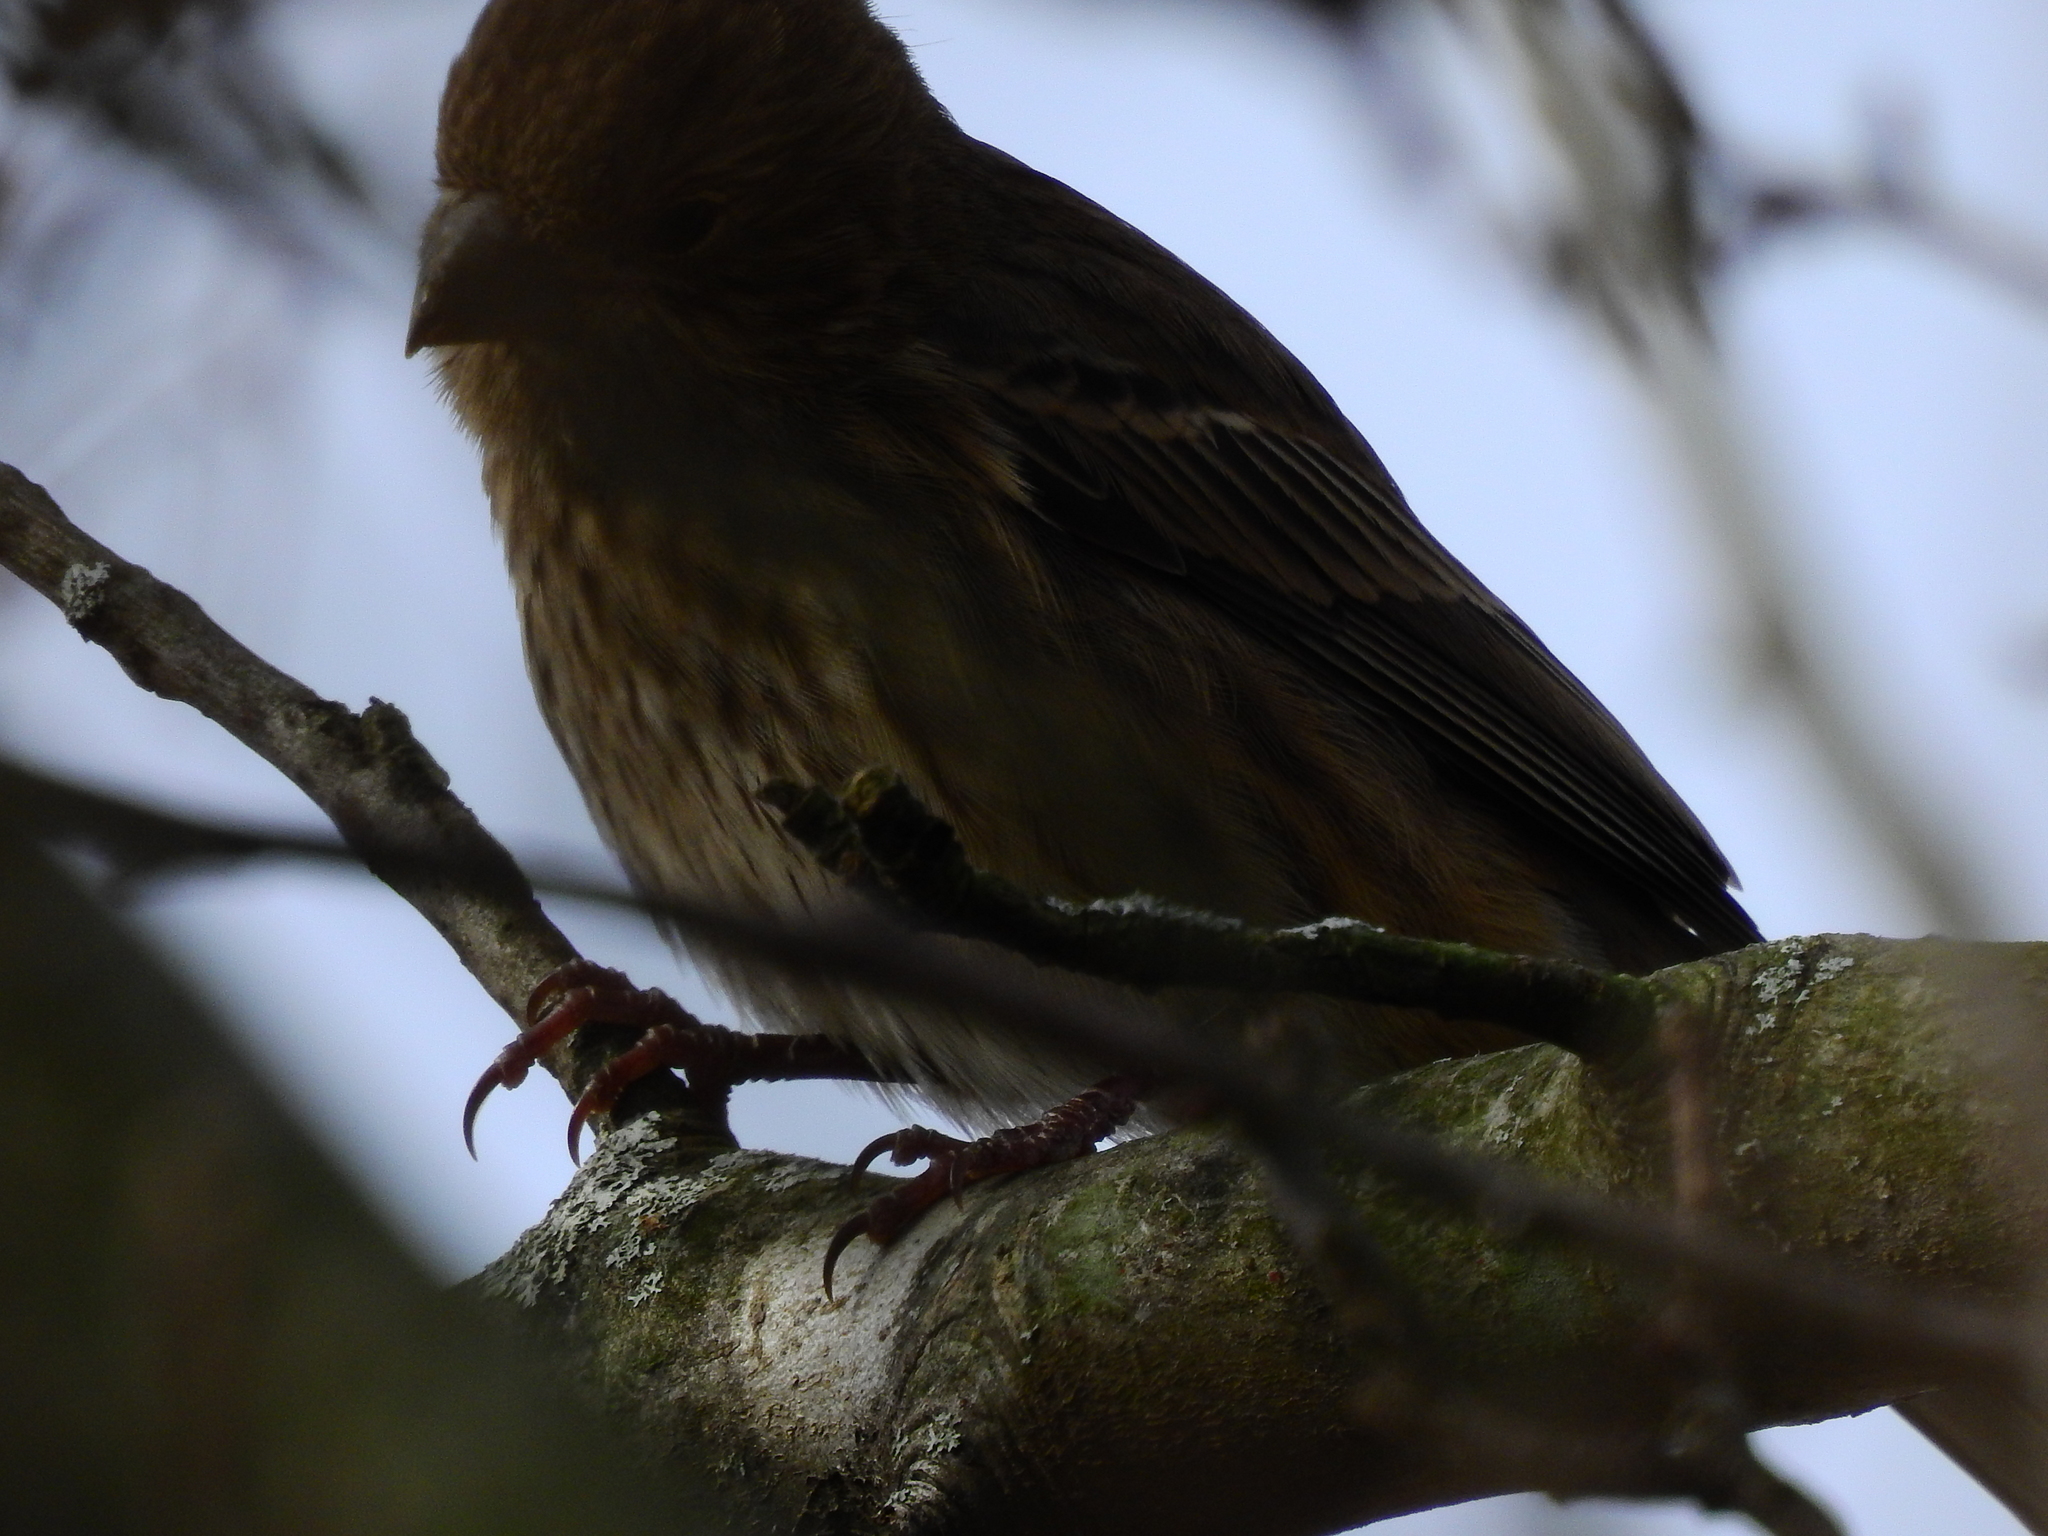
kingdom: Animalia
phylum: Chordata
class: Aves
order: Passeriformes
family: Fringillidae
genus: Haemorhous
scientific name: Haemorhous mexicanus
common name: House finch
